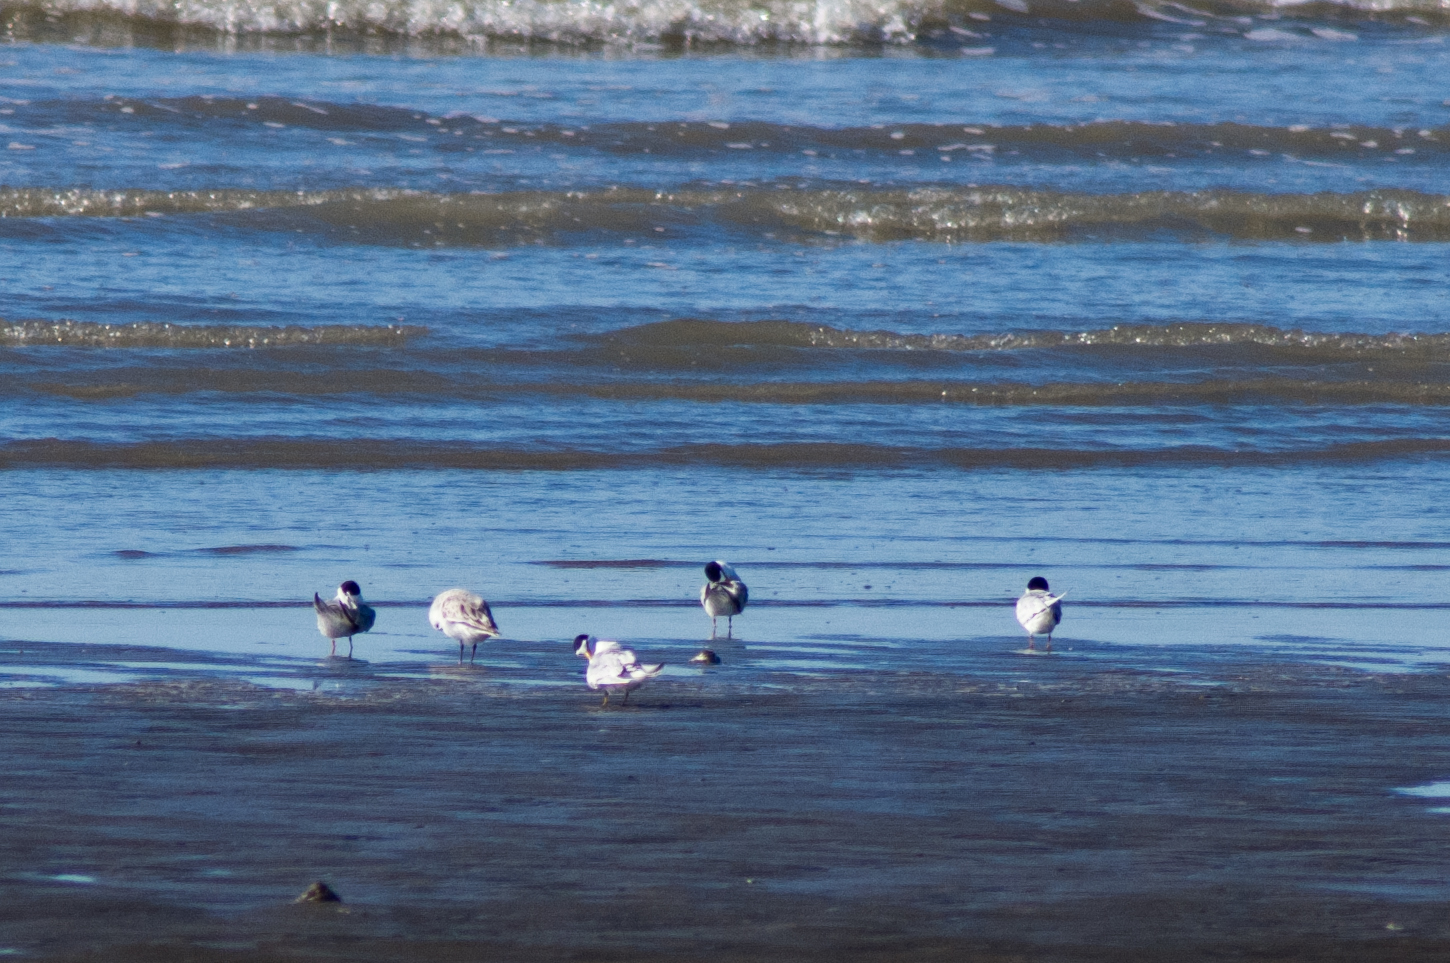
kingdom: Animalia
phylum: Chordata
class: Aves
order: Charadriiformes
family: Laridae
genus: Sternula
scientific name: Sternula antillarum
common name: Least tern
